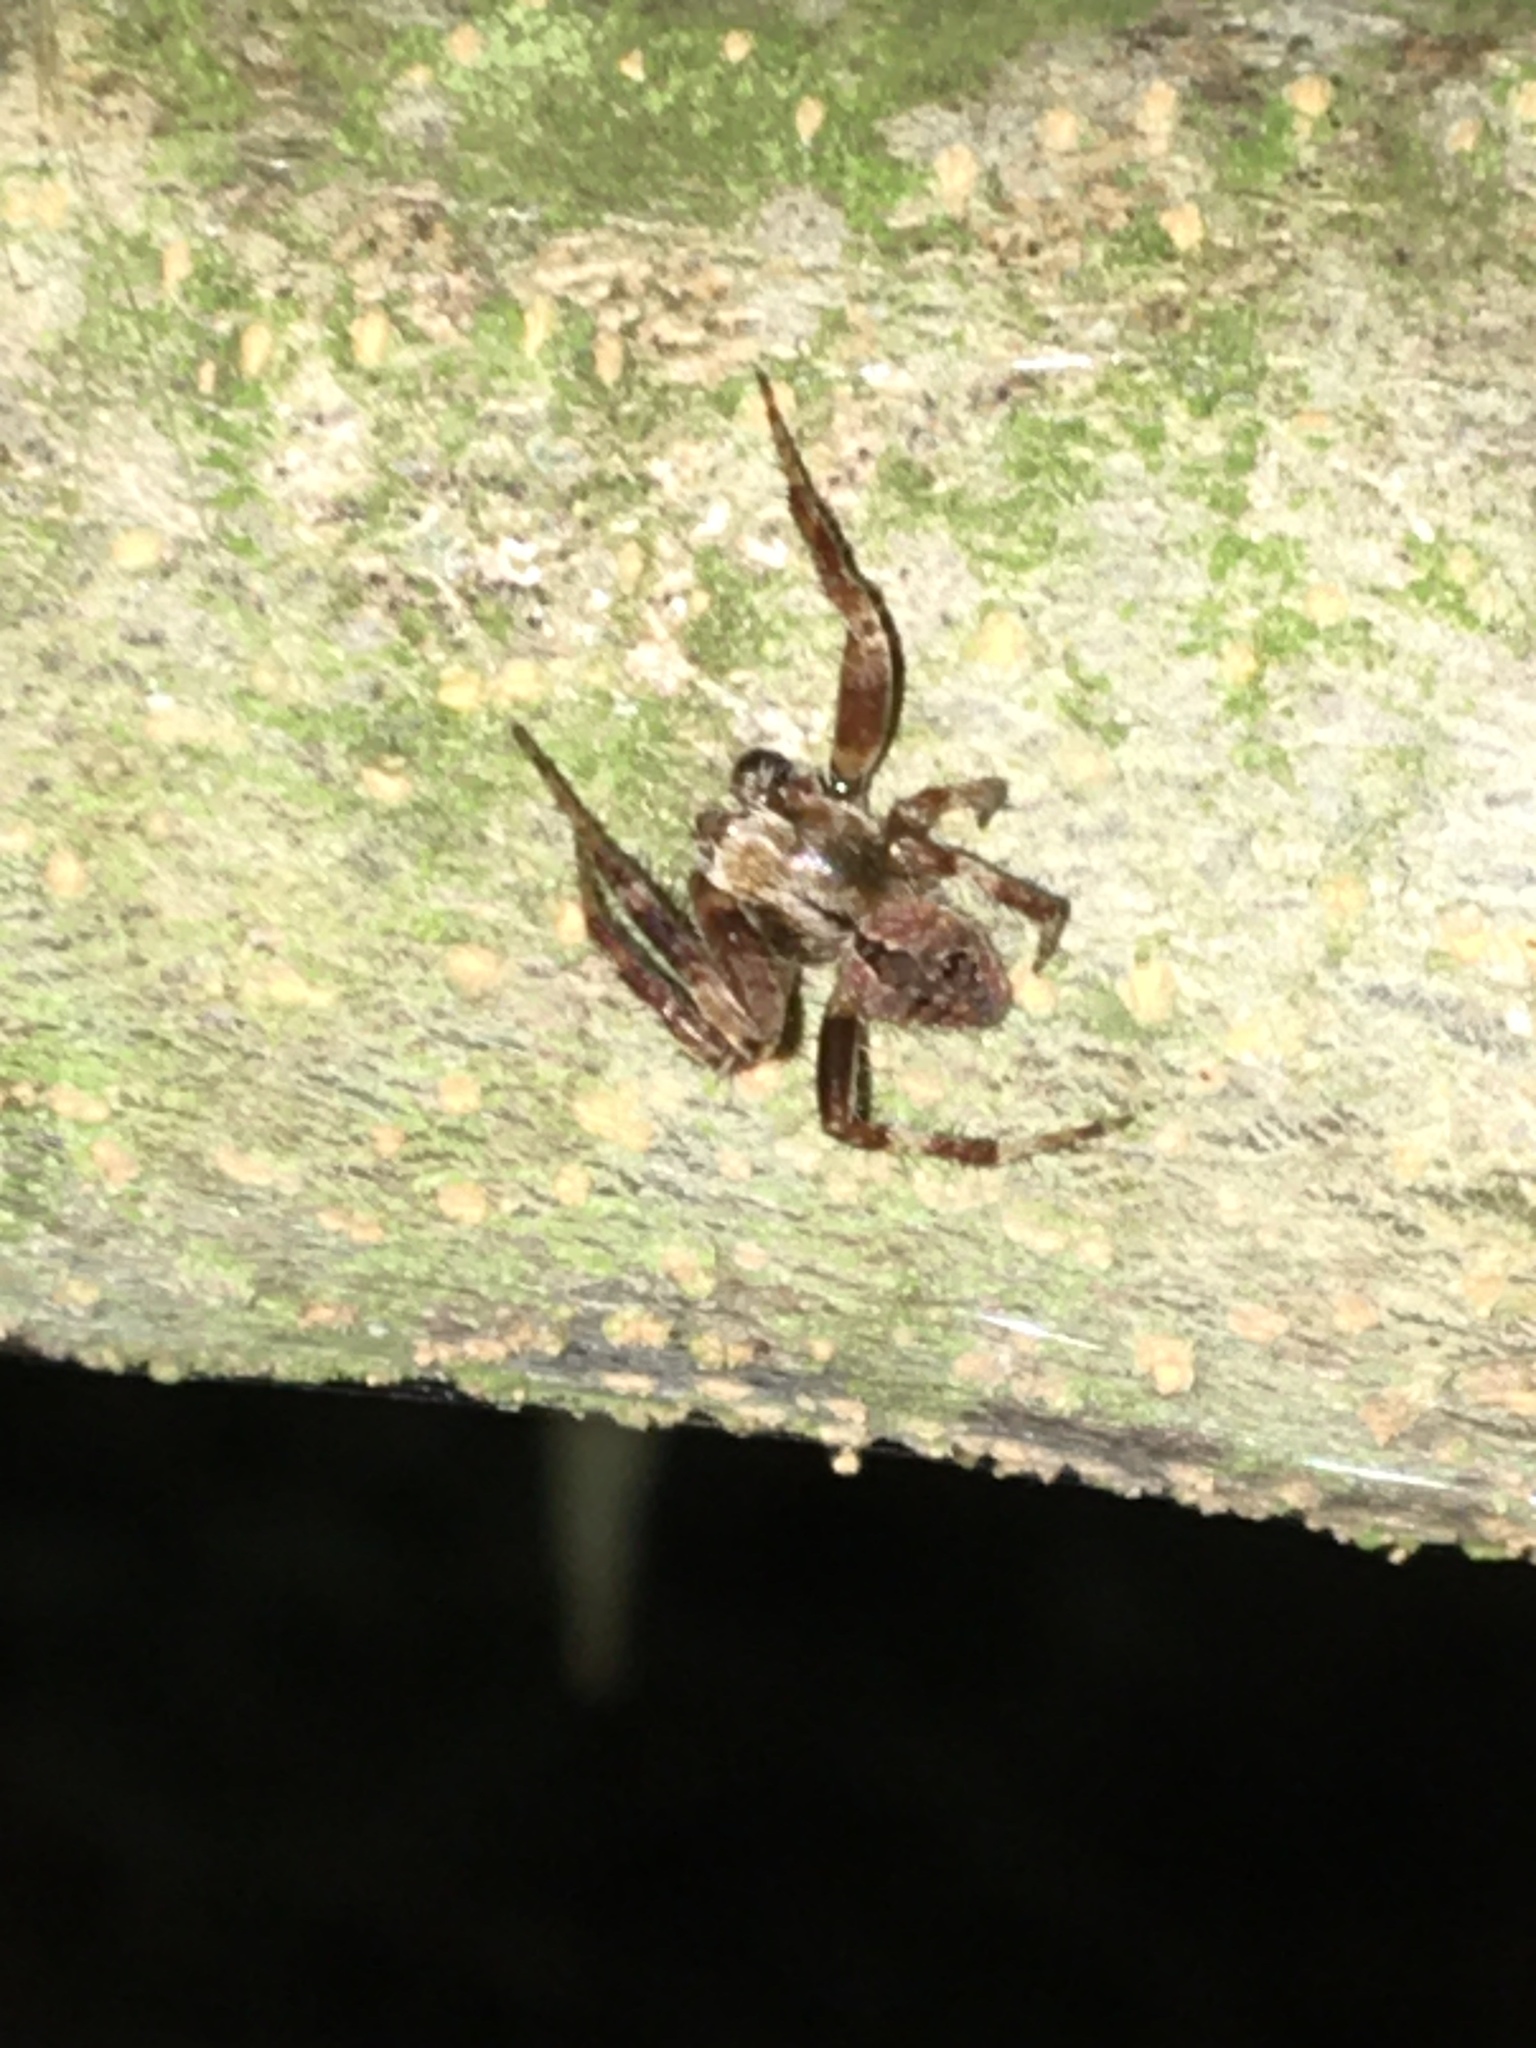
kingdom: Animalia
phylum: Arthropoda
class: Arachnida
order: Araneae
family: Araneidae
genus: Neoscona
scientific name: Neoscona subfusca
